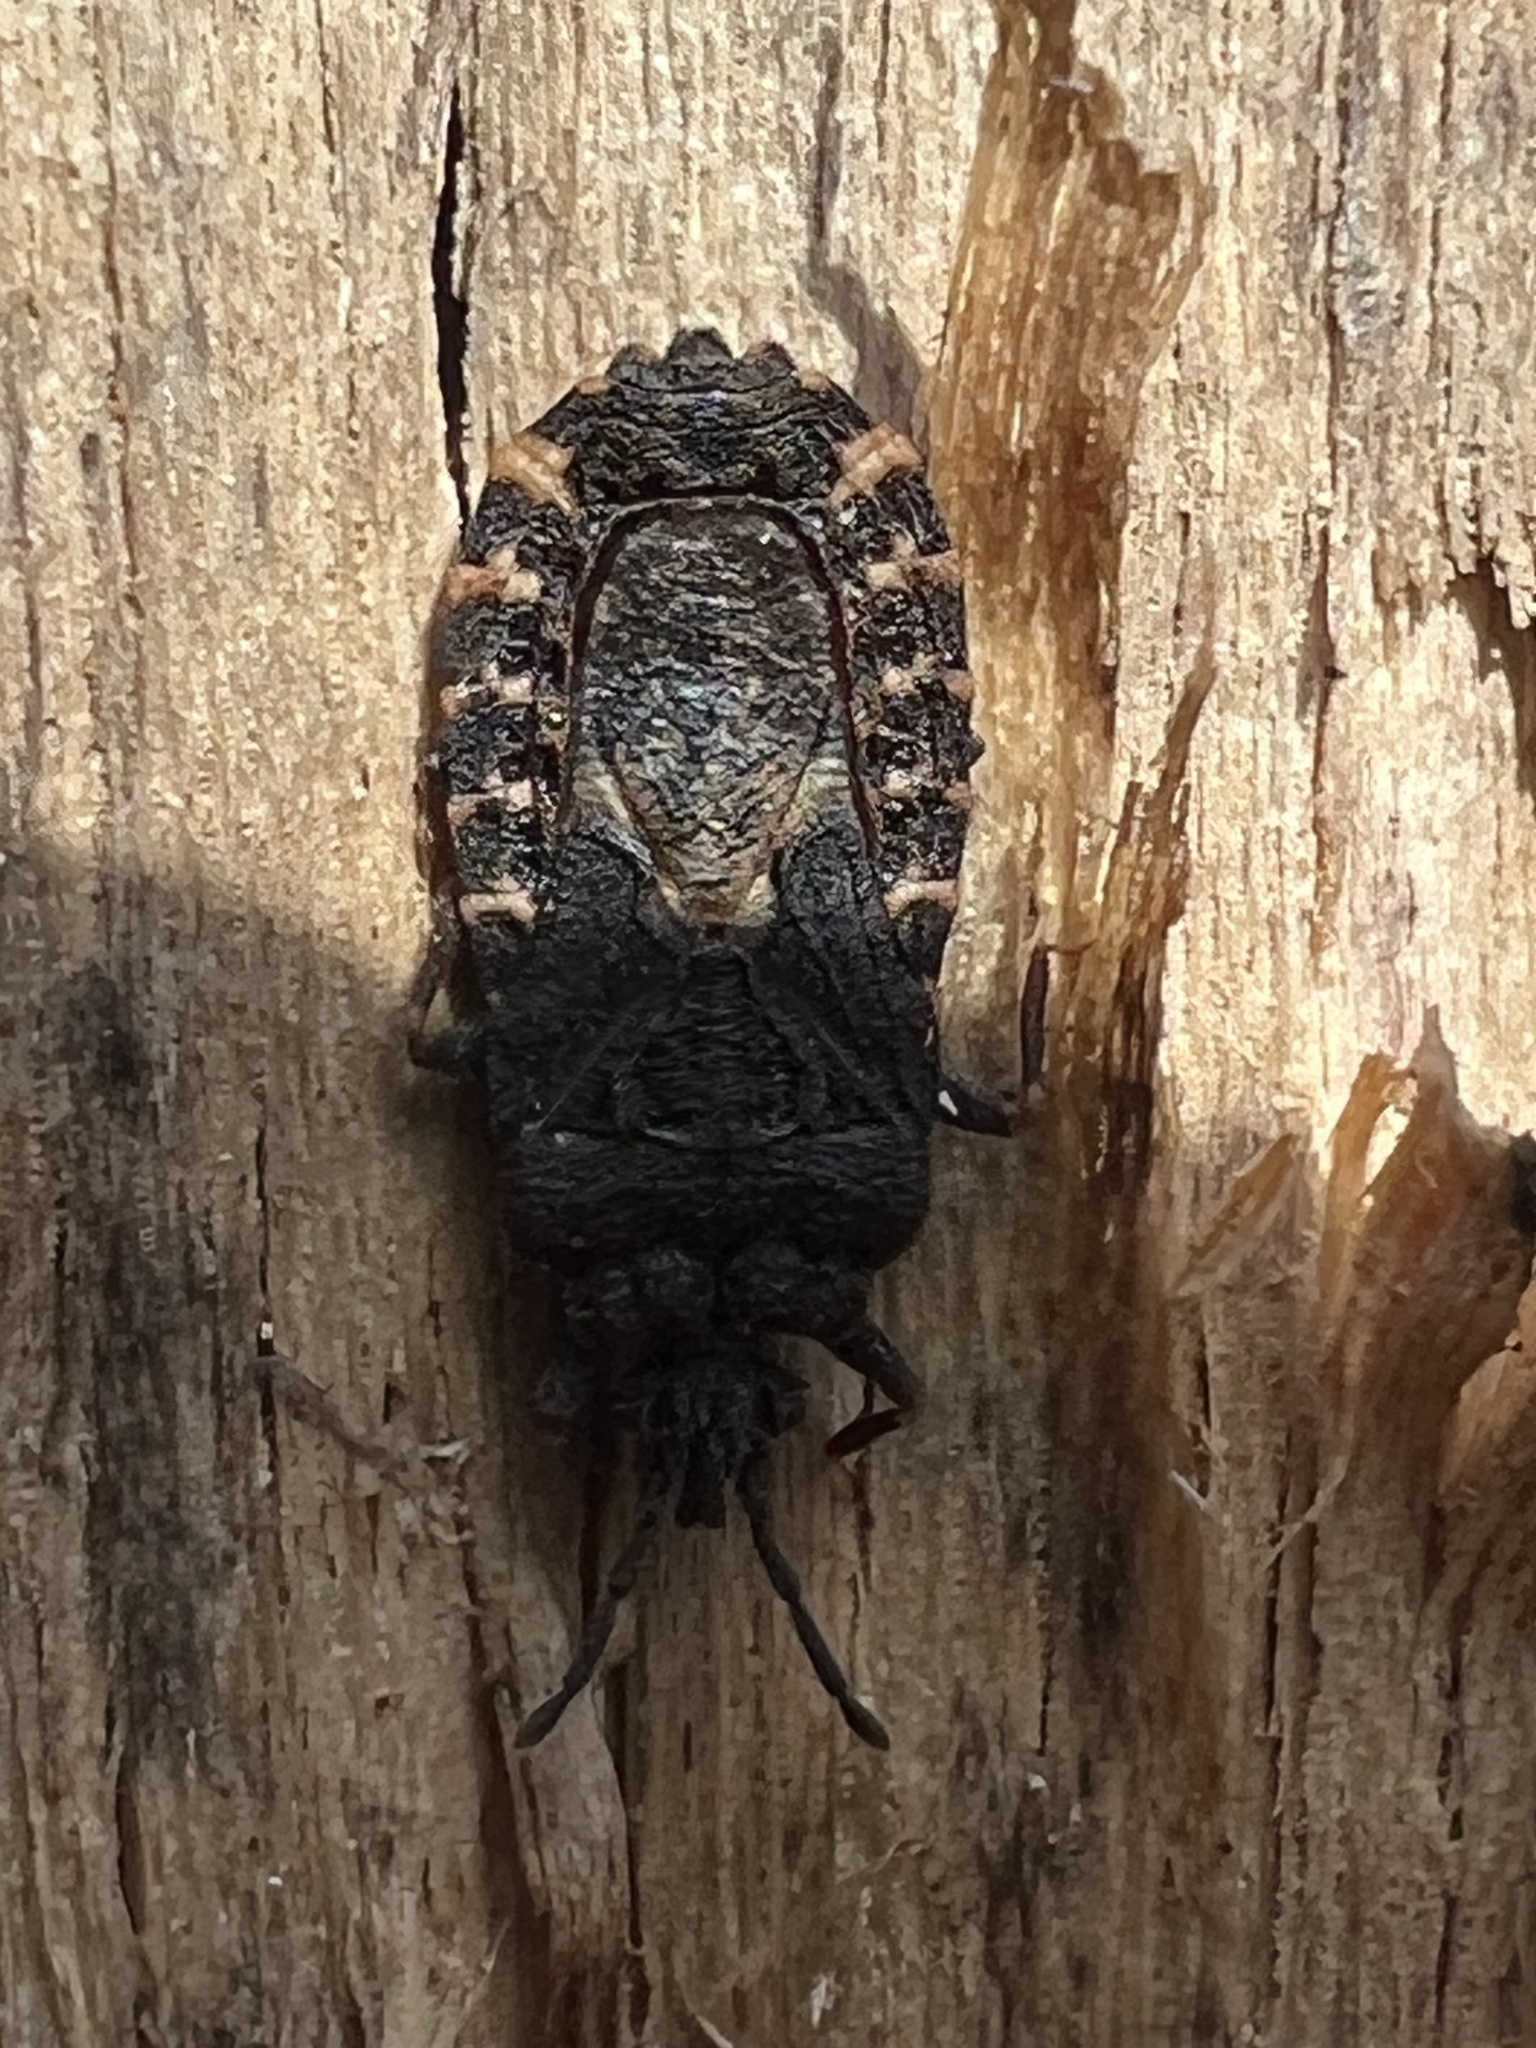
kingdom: Animalia
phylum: Arthropoda
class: Insecta
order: Hemiptera
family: Aradidae
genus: Mezira
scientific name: Mezira
